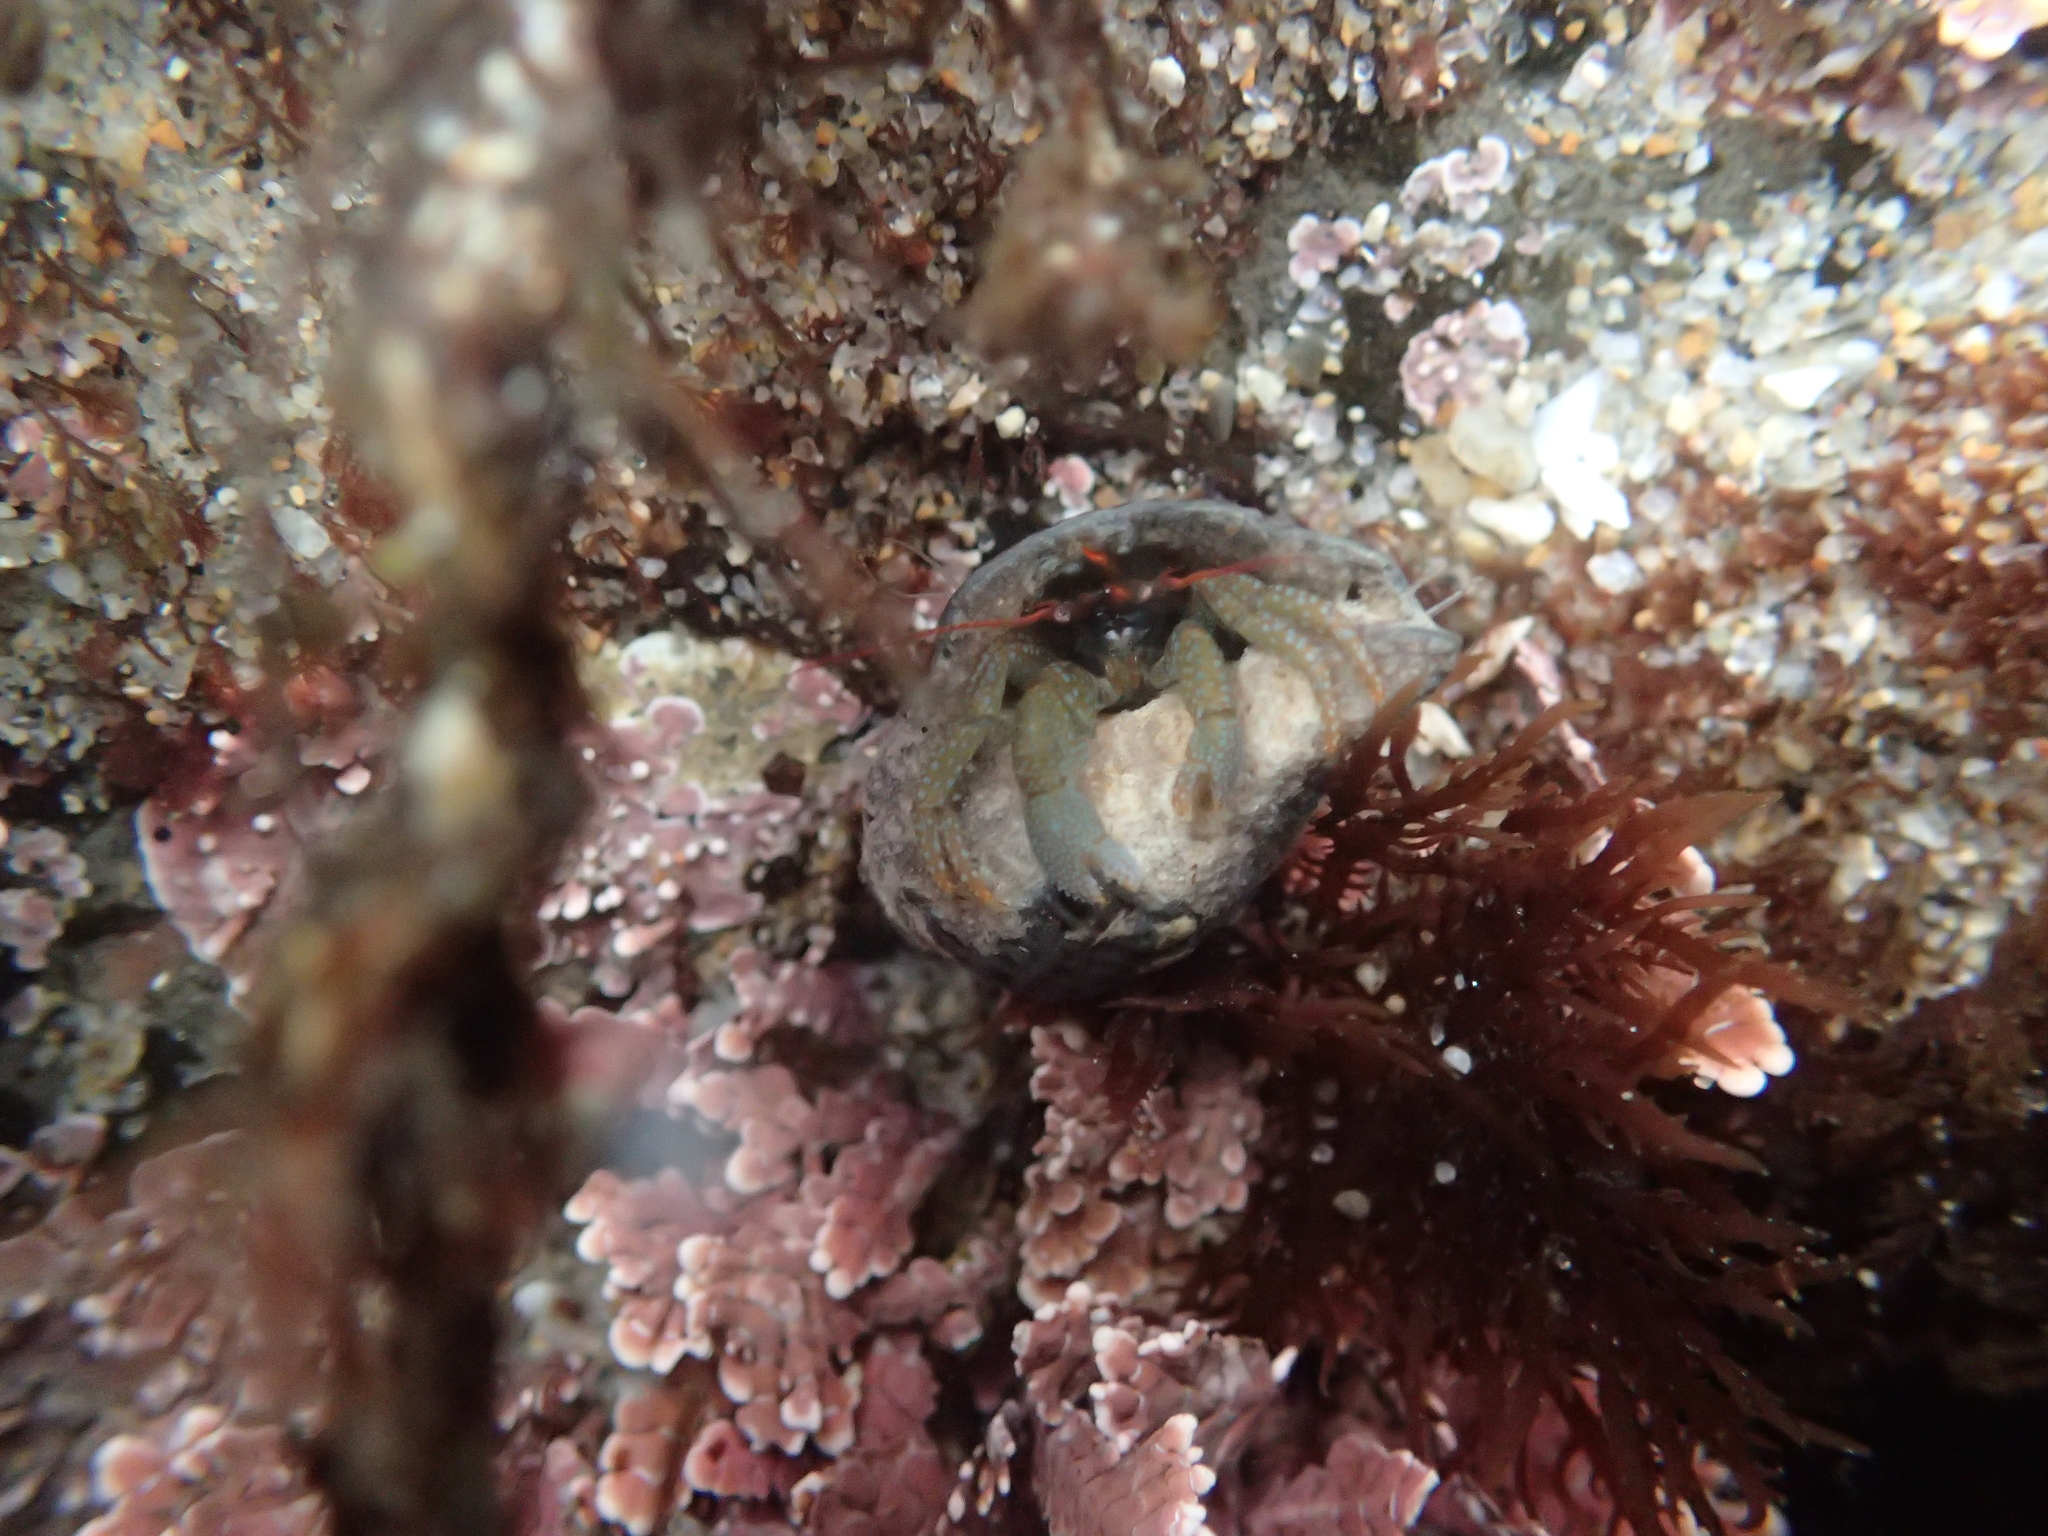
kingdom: Animalia
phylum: Arthropoda
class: Malacostraca
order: Decapoda
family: Paguridae
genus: Pagurus
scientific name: Pagurus granosimanus
